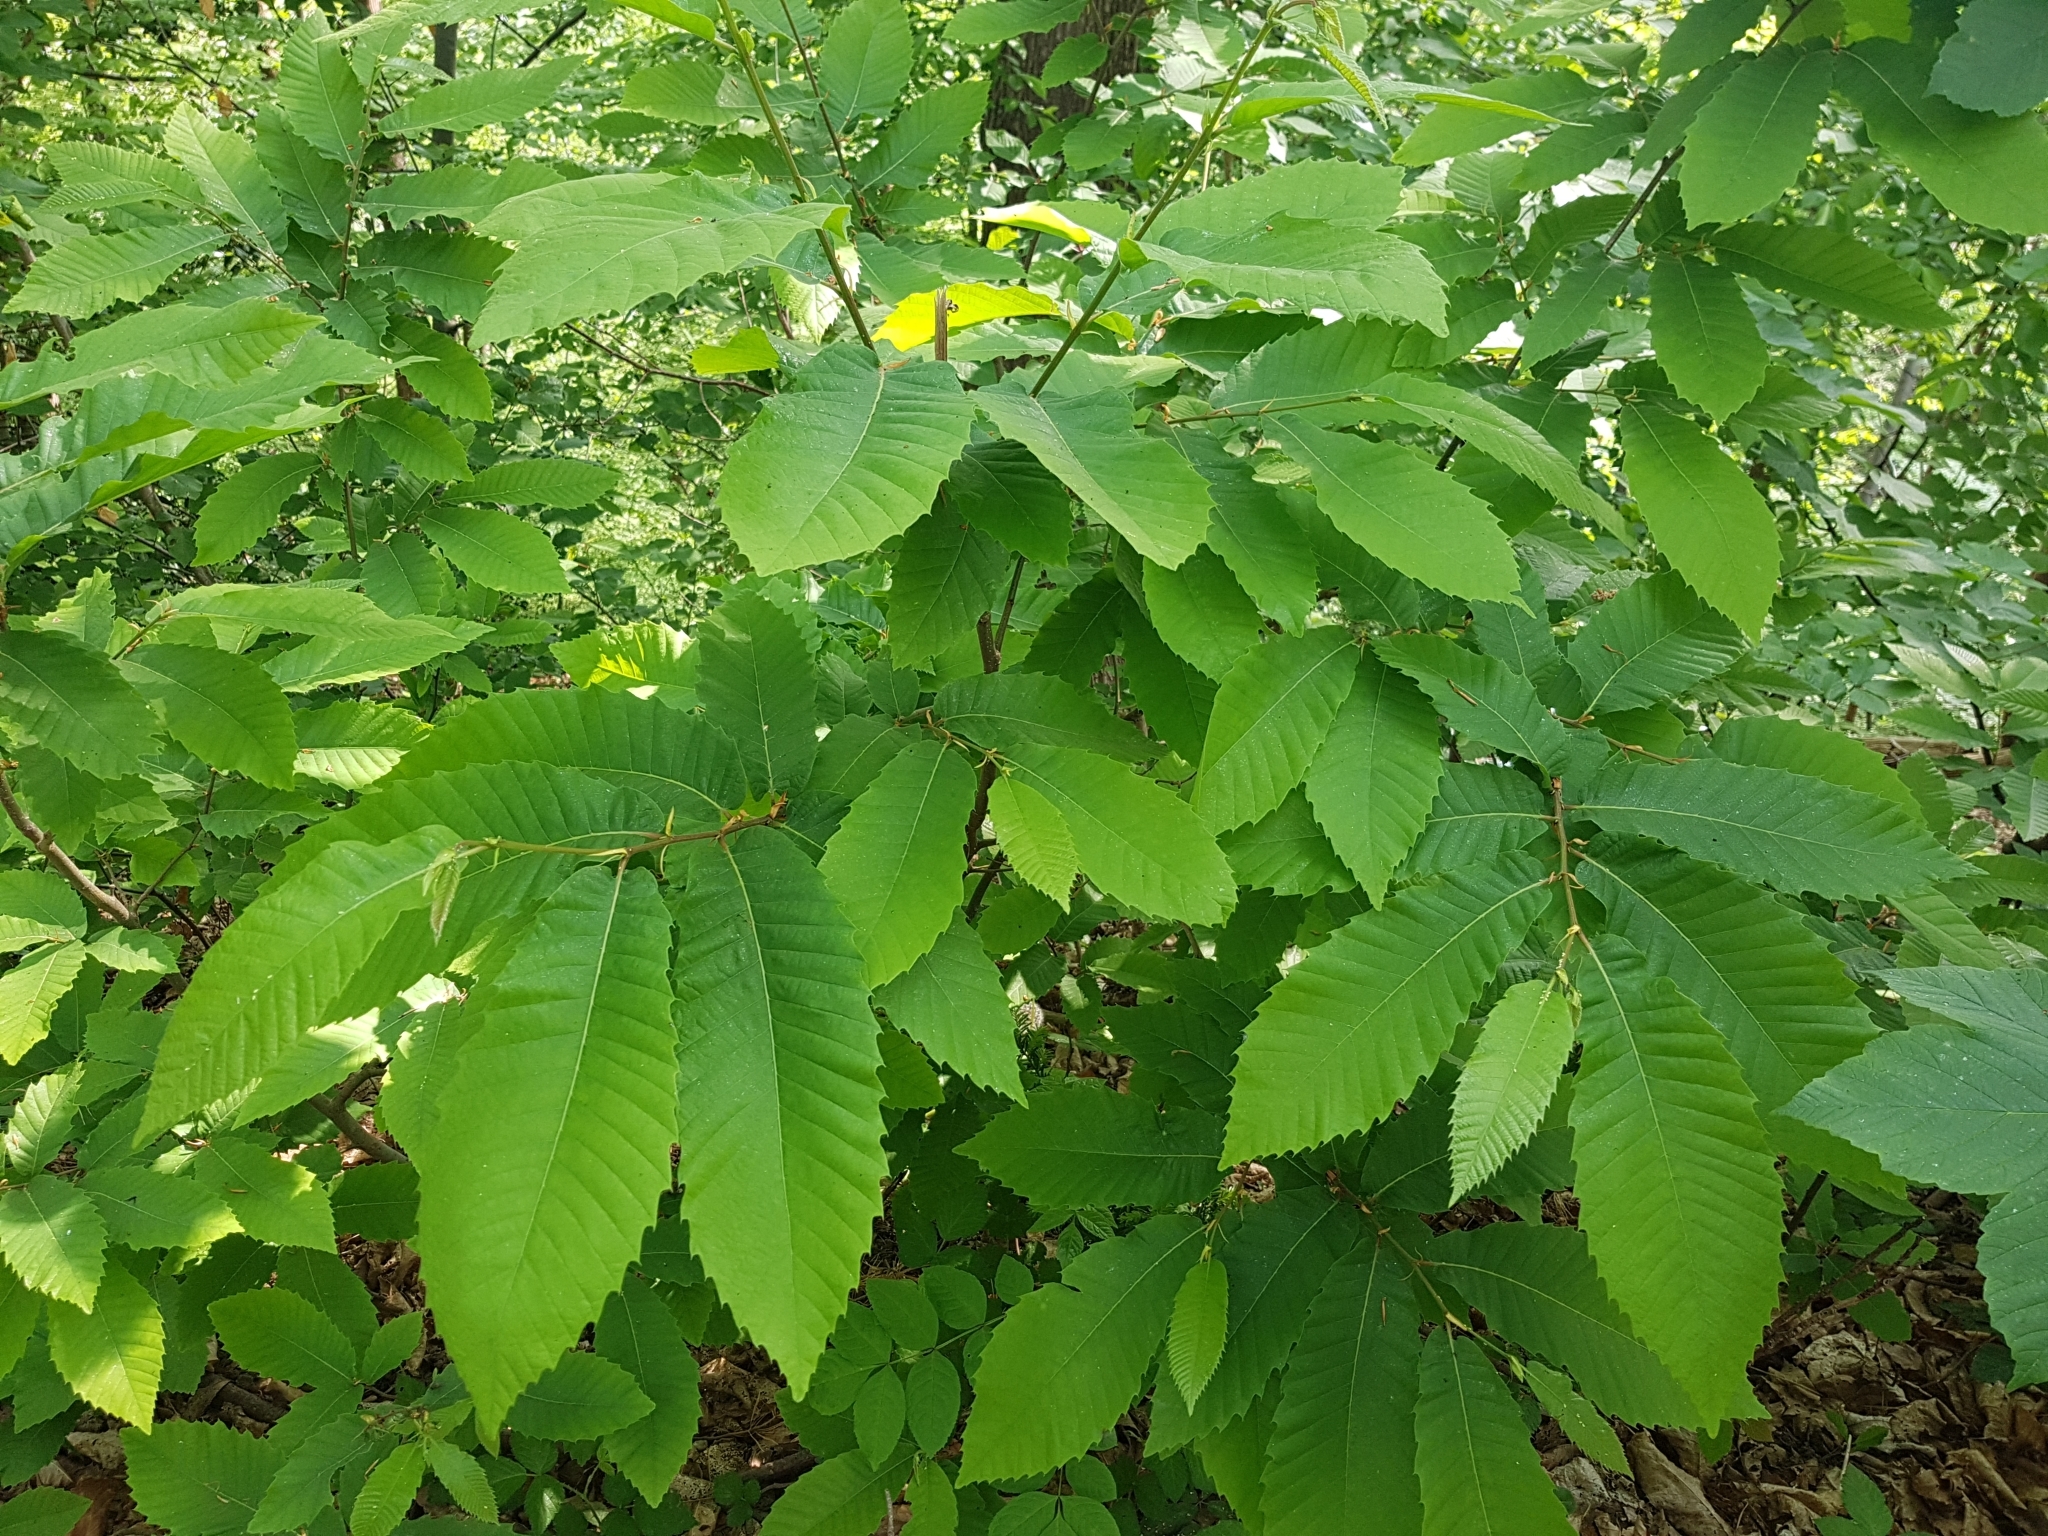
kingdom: Plantae
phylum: Tracheophyta
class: Magnoliopsida
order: Fagales
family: Fagaceae
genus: Castanea
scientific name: Castanea sativa
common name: Sweet chestnut
